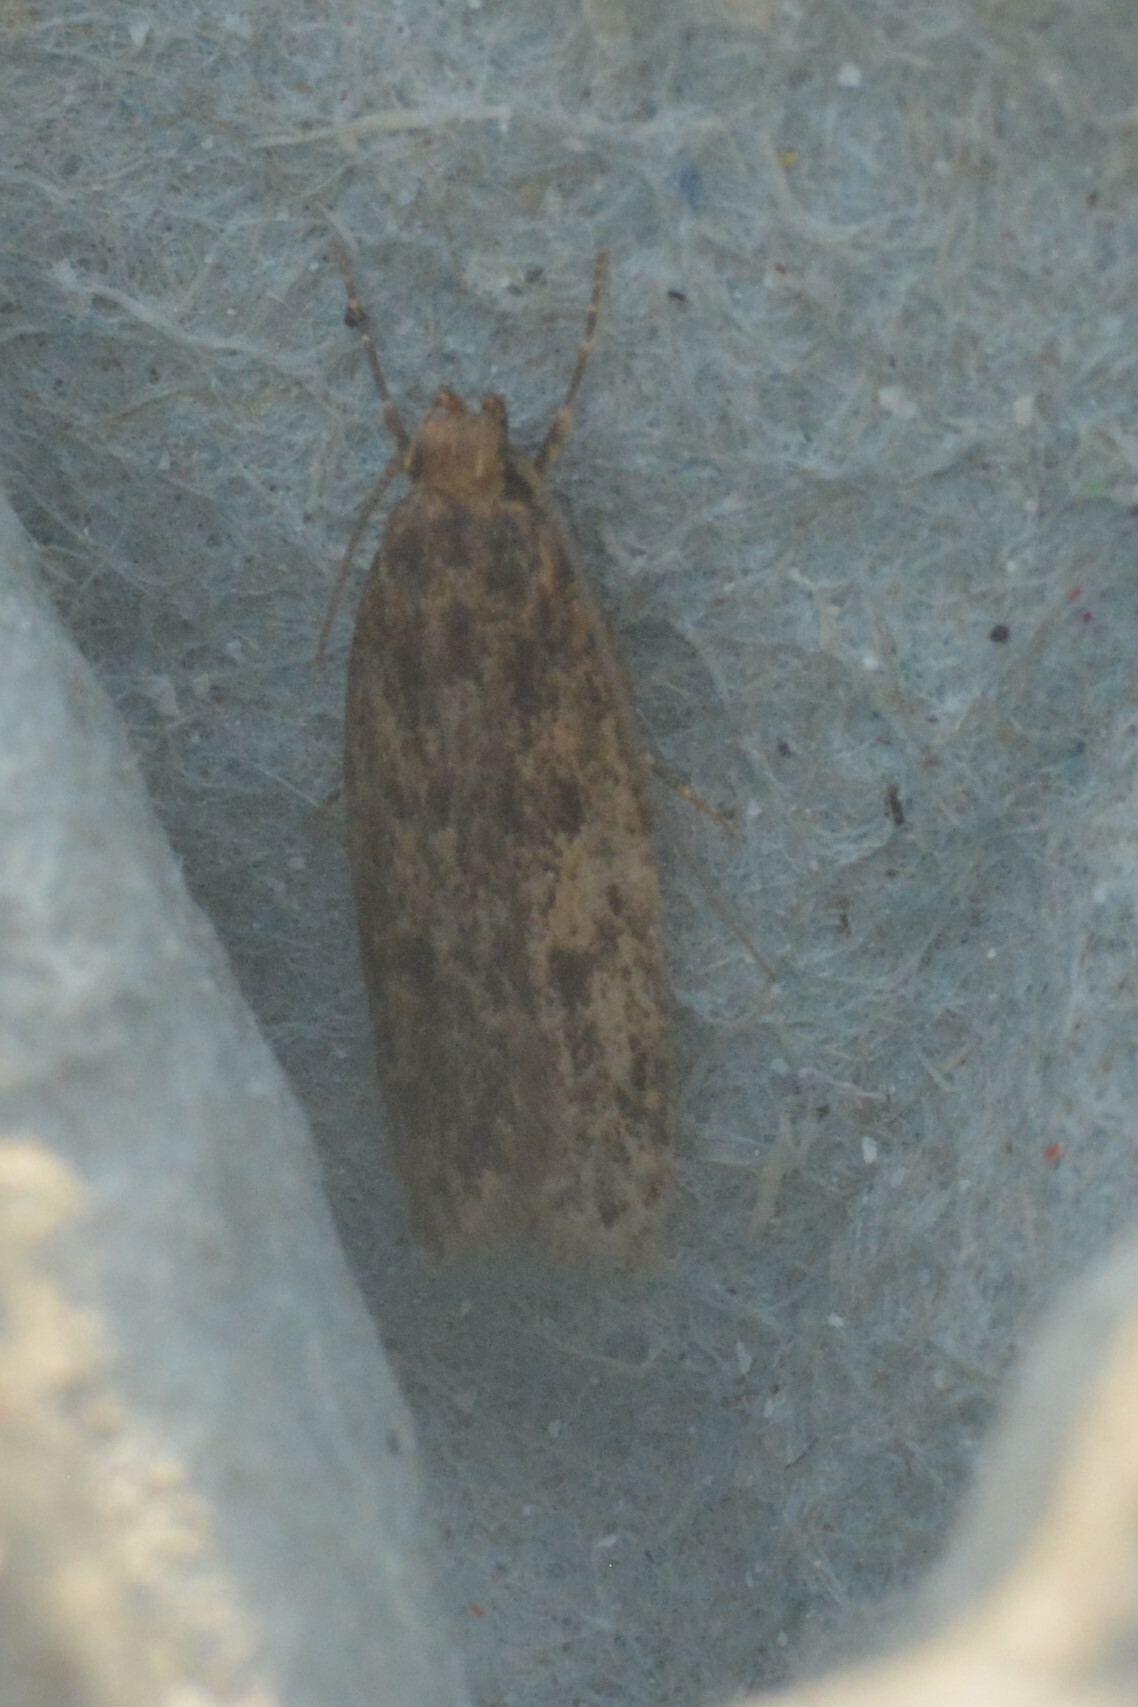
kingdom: Animalia
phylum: Arthropoda
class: Insecta
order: Lepidoptera
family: Oecophoridae
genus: Hofmannophila
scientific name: Hofmannophila pseudospretella
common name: Brown house moth
